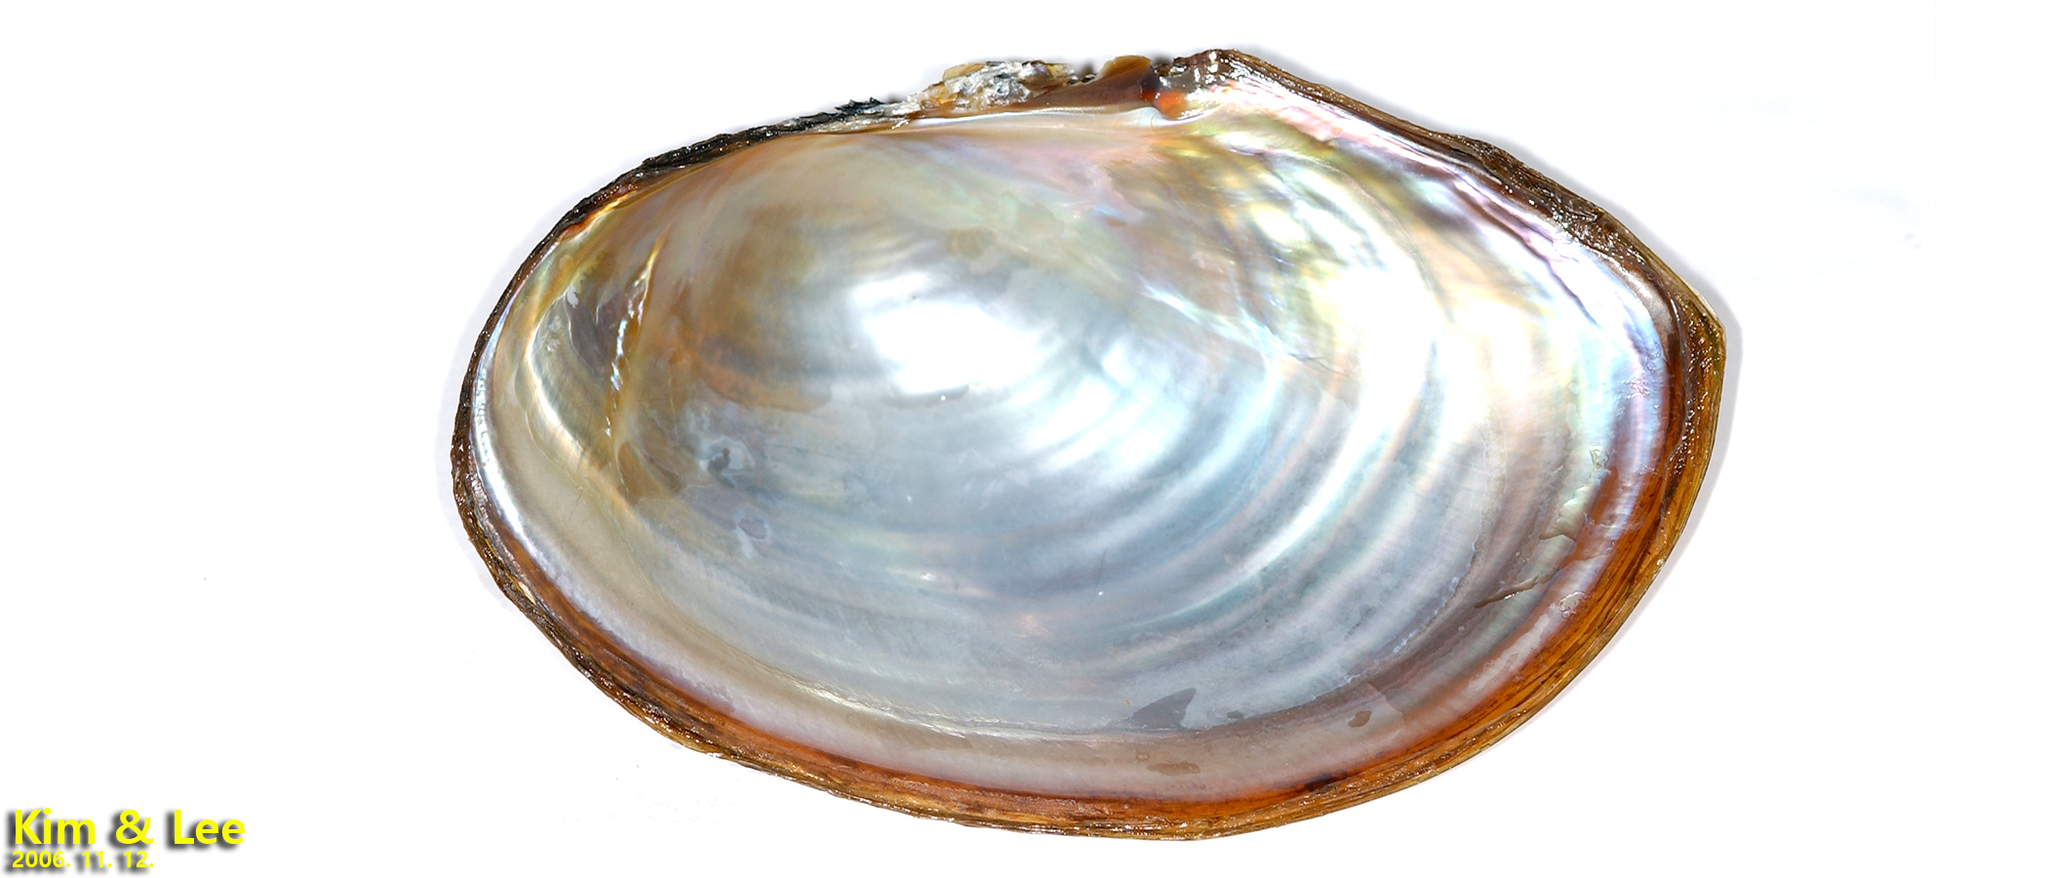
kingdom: Animalia
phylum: Mollusca
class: Bivalvia
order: Unionida
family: Unionidae
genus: Sinanodonta
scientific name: Sinanodonta lauta
